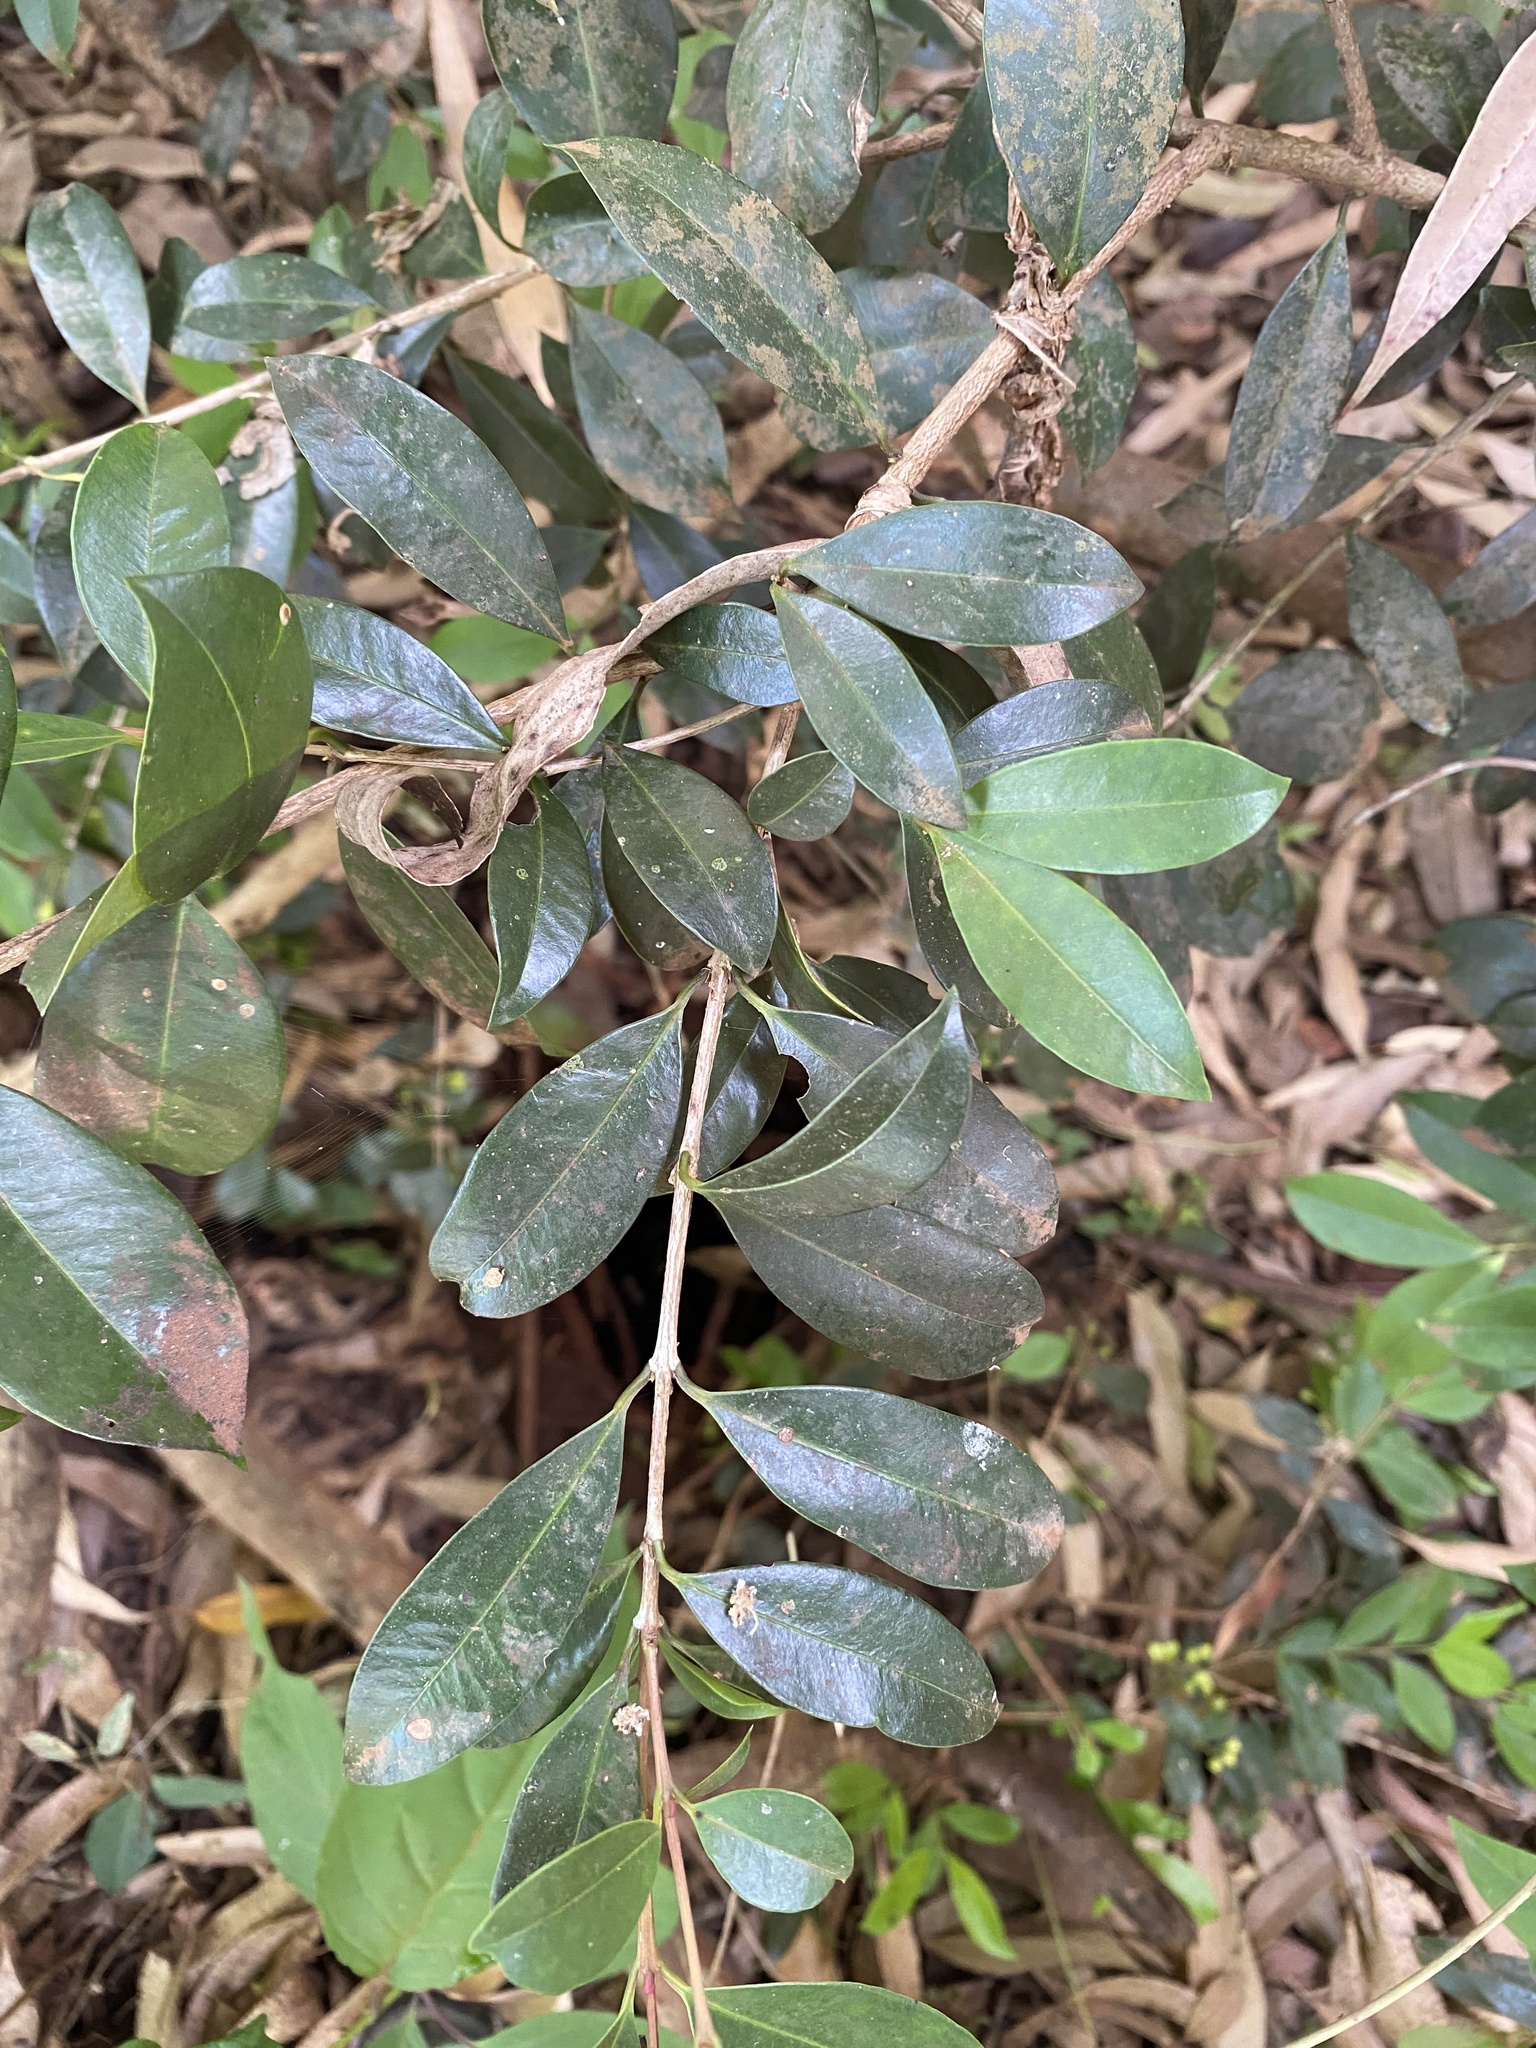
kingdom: Plantae
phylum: Tracheophyta
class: Magnoliopsida
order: Myrtales
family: Myrtaceae
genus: Syzygium
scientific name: Syzygium australe
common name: Australian brush-cherry
